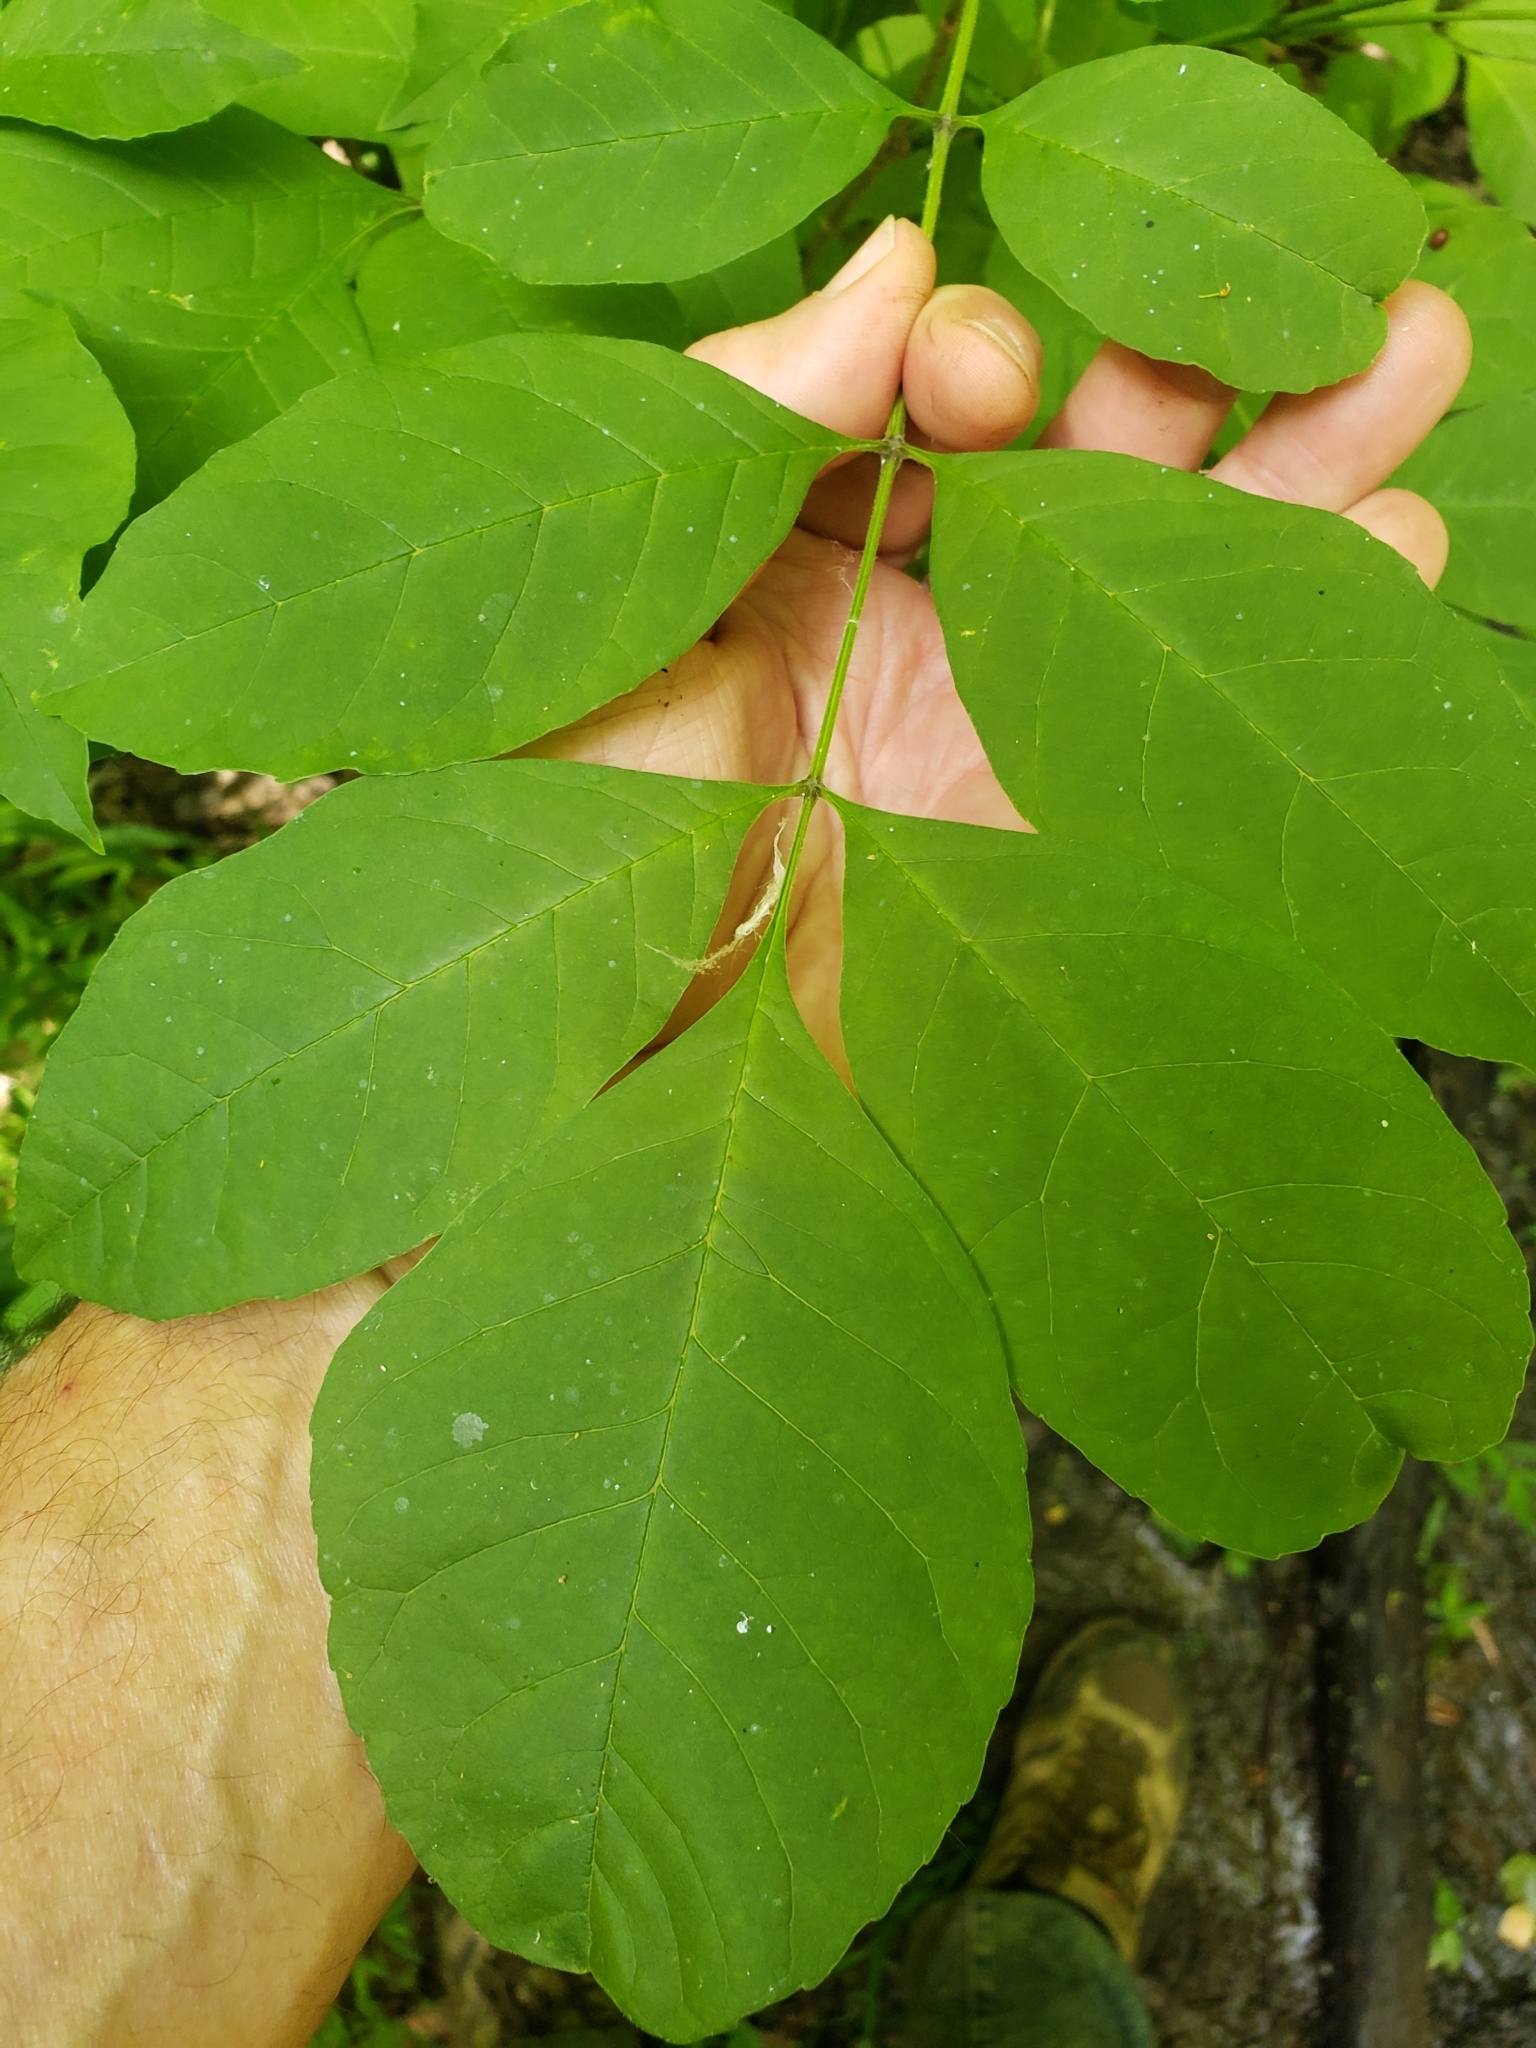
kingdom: Animalia
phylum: Arthropoda
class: Insecta
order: Diptera
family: Cecidomyiidae
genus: Dasineura
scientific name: Dasineura pellex
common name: Ash bullet gall midge
